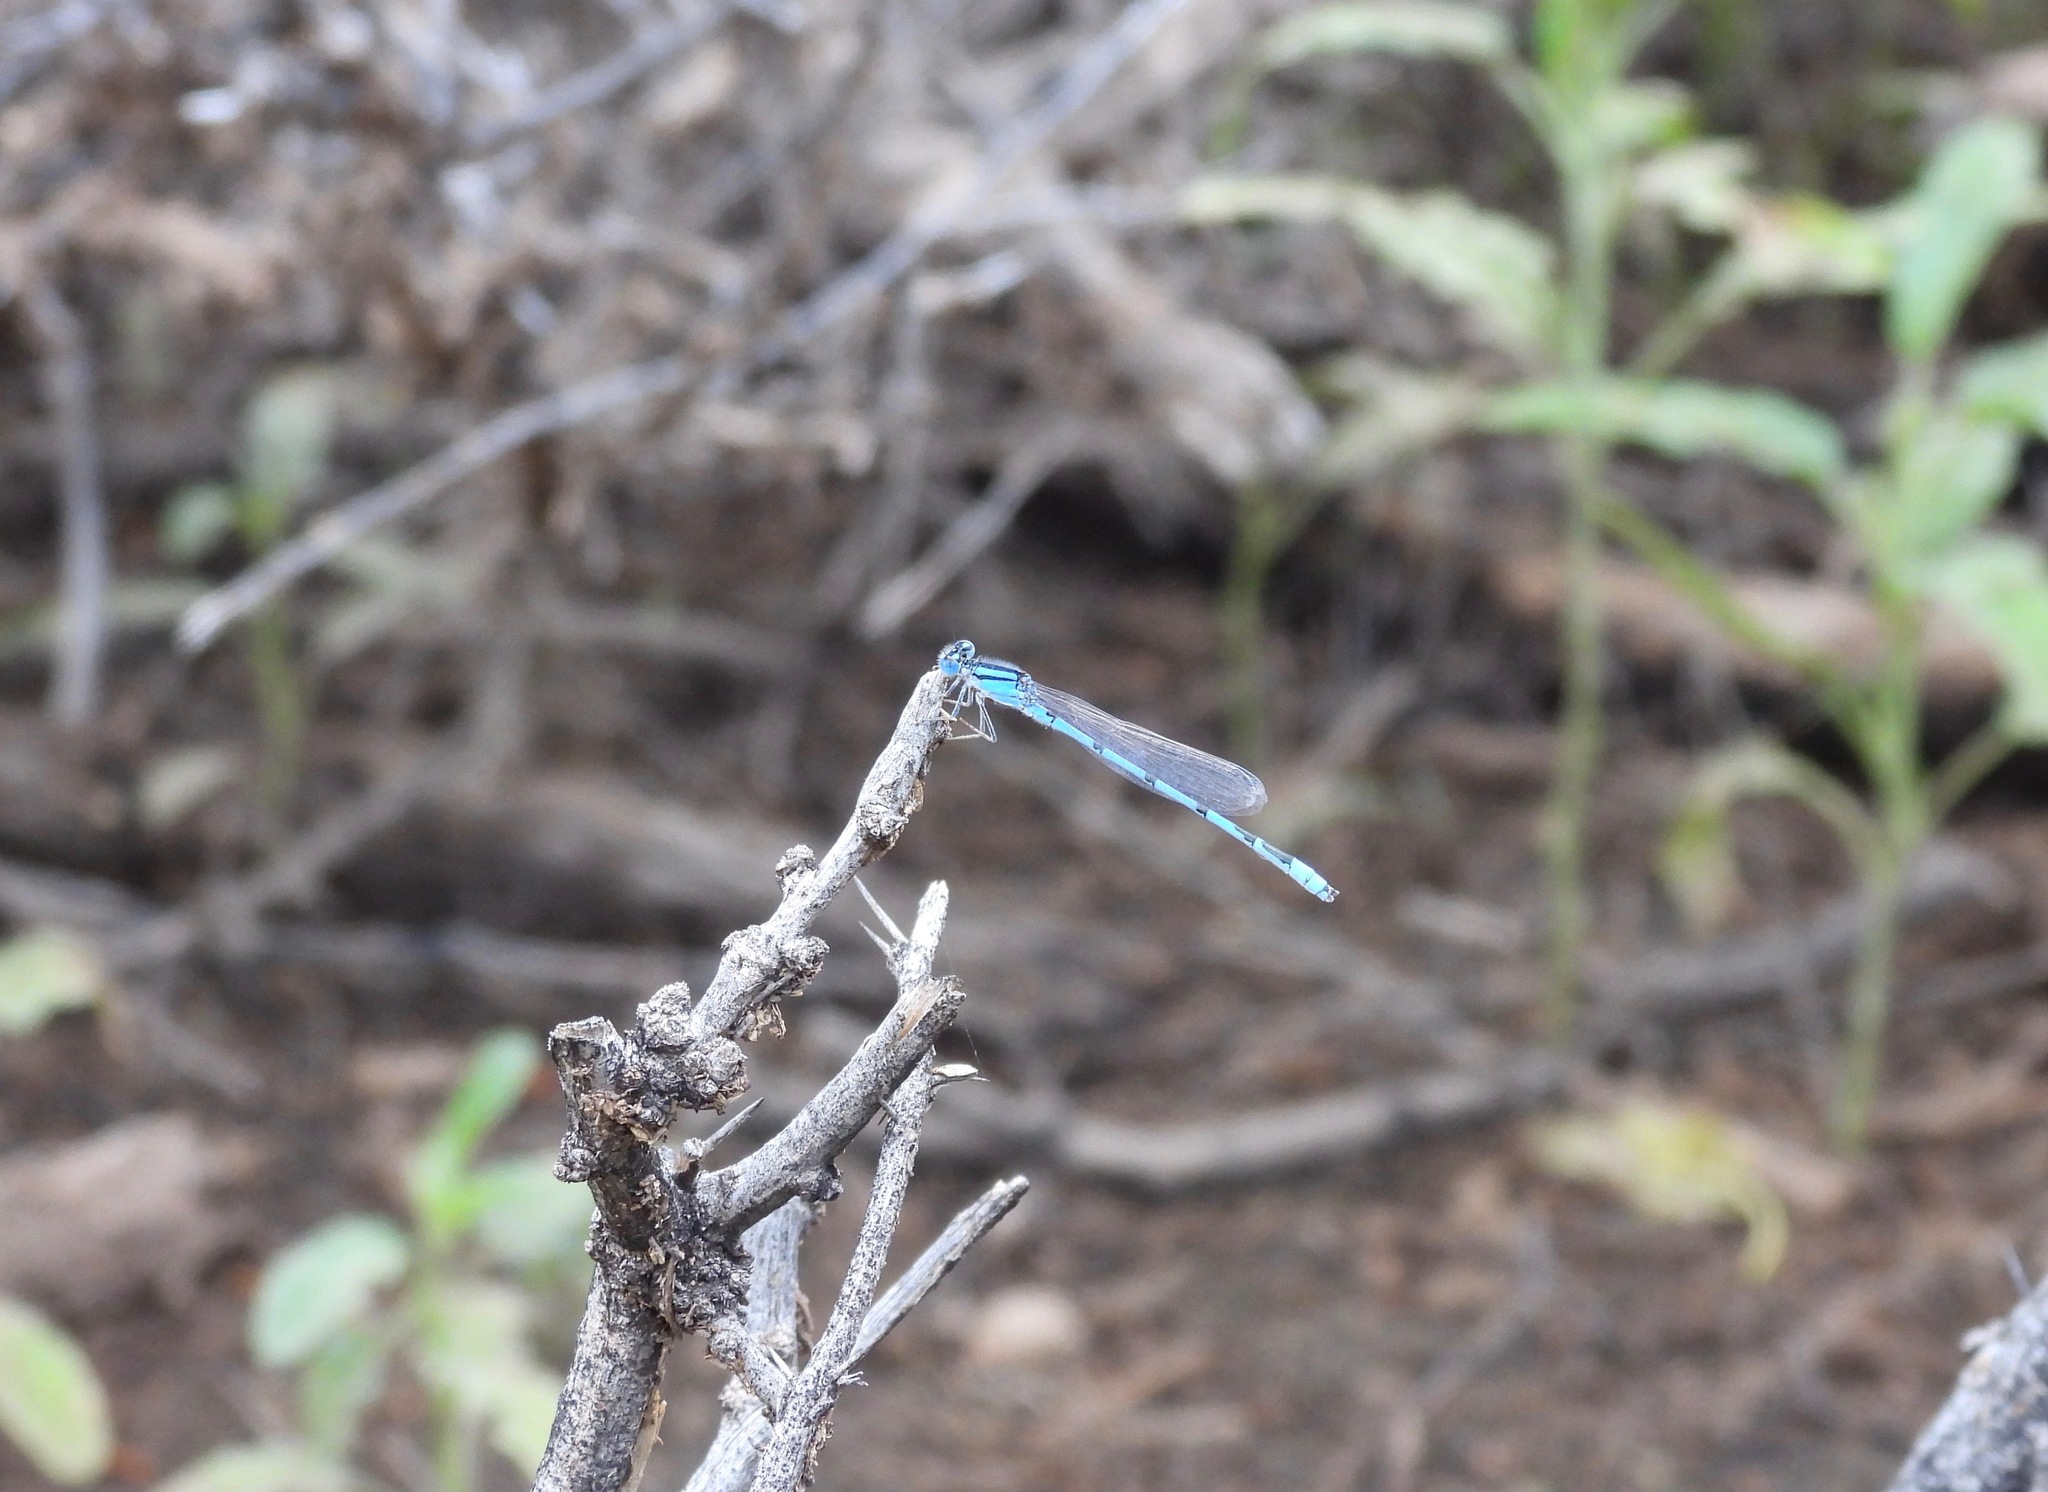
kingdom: Animalia
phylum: Arthropoda
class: Insecta
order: Odonata
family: Coenagrionidae
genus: Enallagma
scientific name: Enallagma civile
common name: Damselfly
